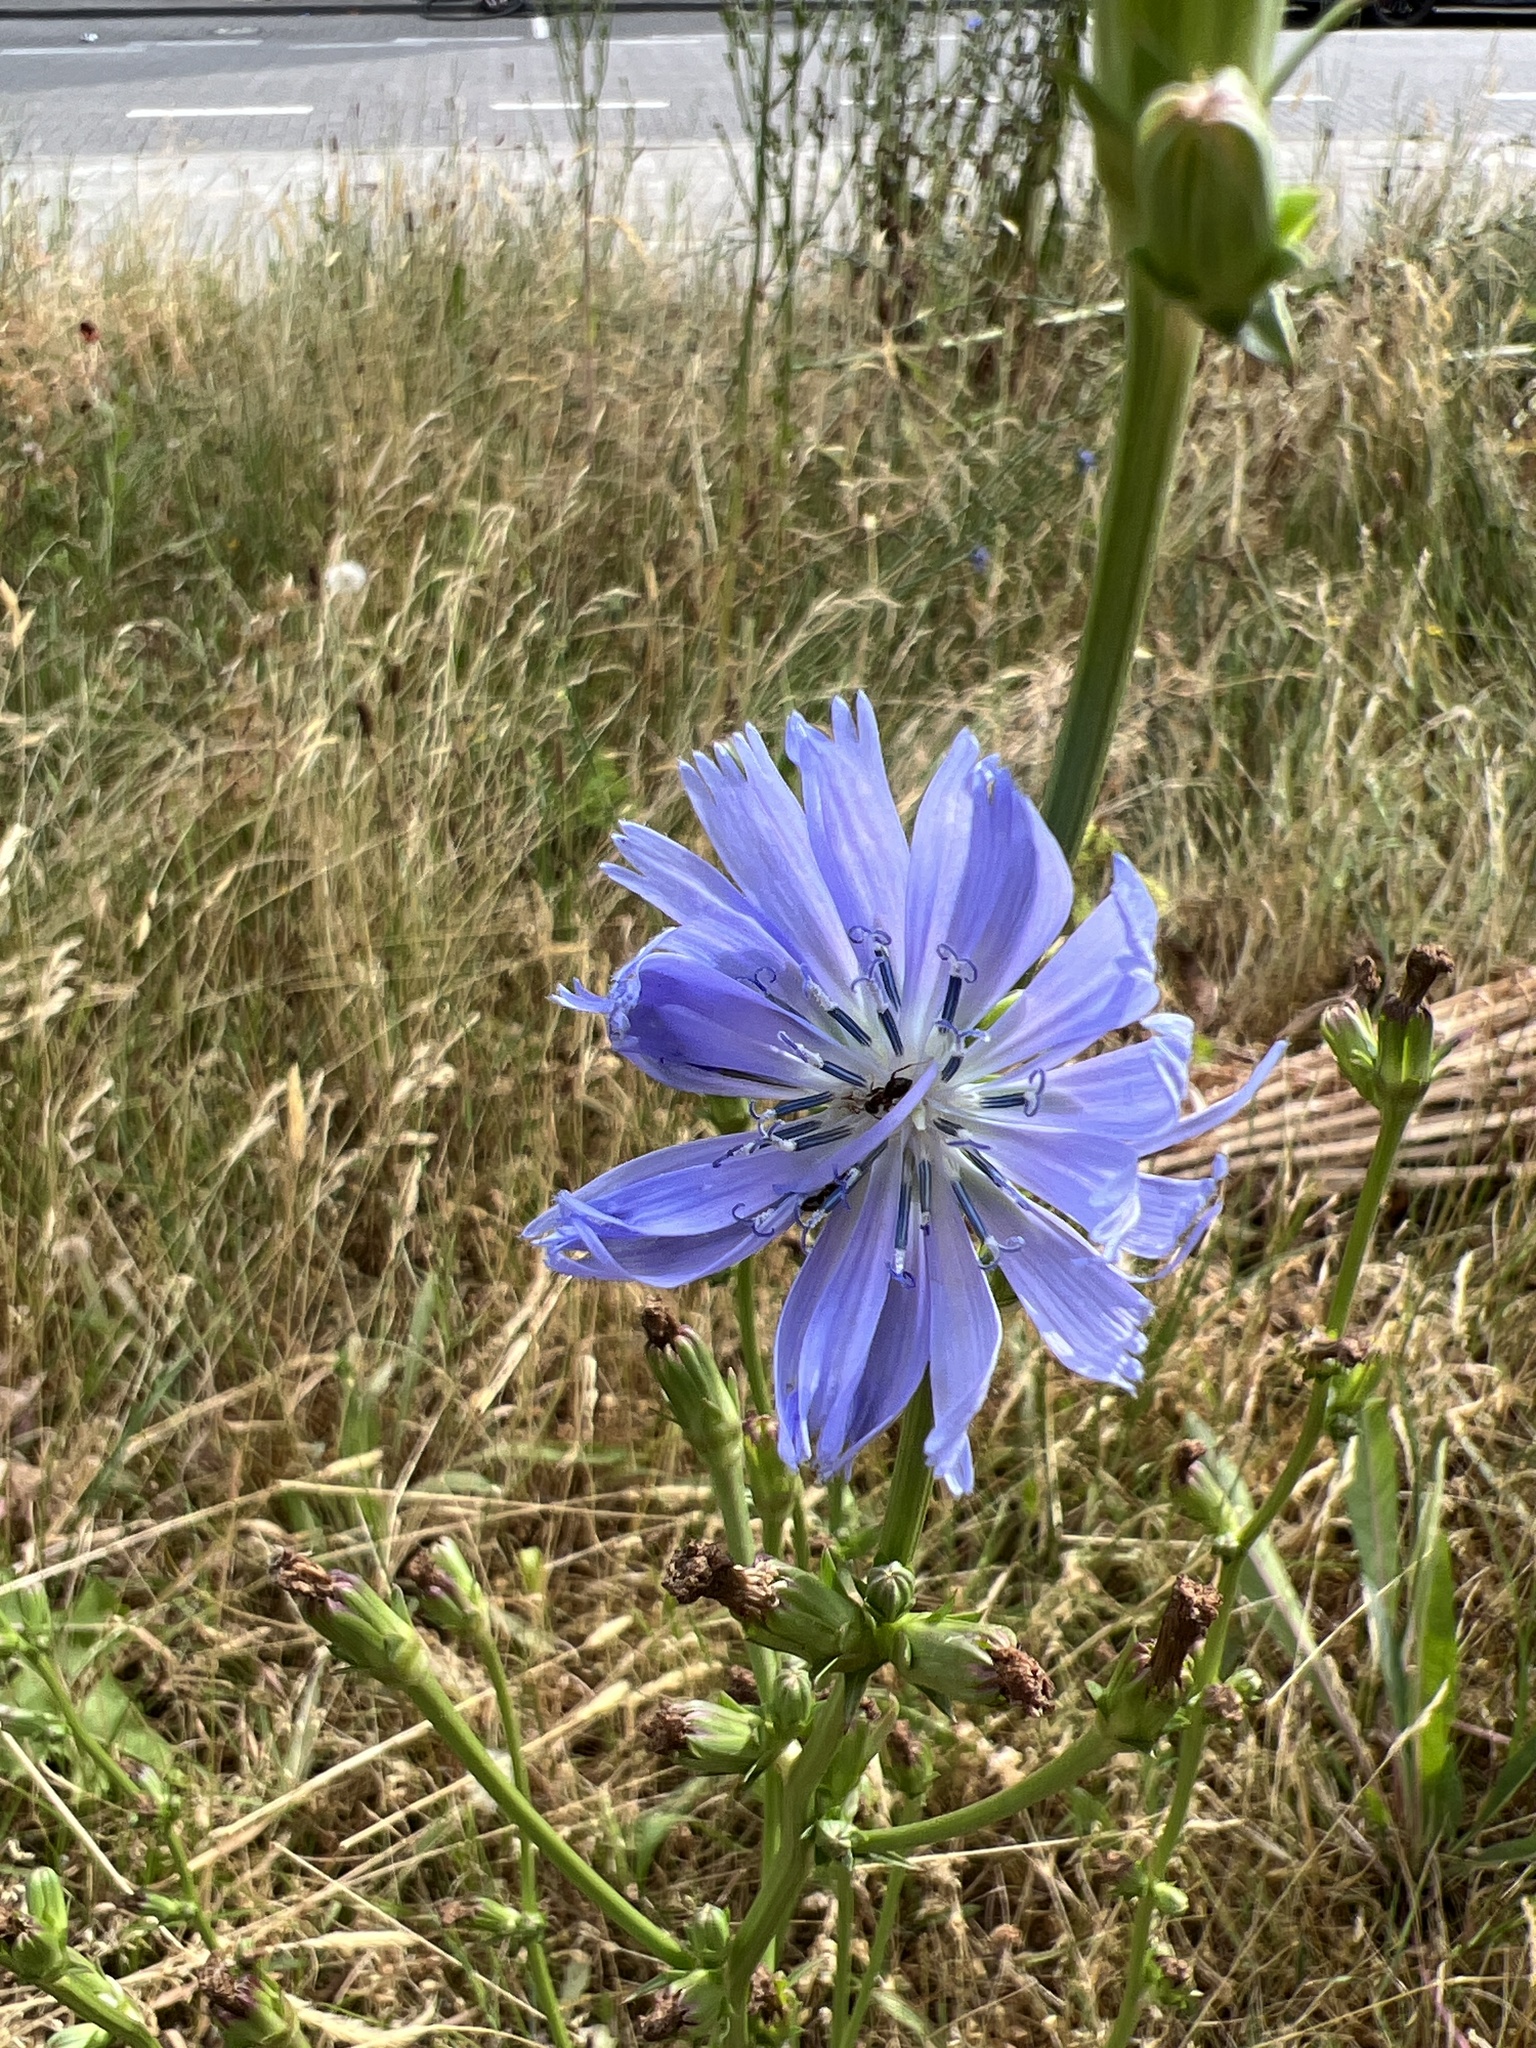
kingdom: Plantae
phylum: Tracheophyta
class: Magnoliopsida
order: Asterales
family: Asteraceae
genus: Cichorium
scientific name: Cichorium intybus
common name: Chicory
